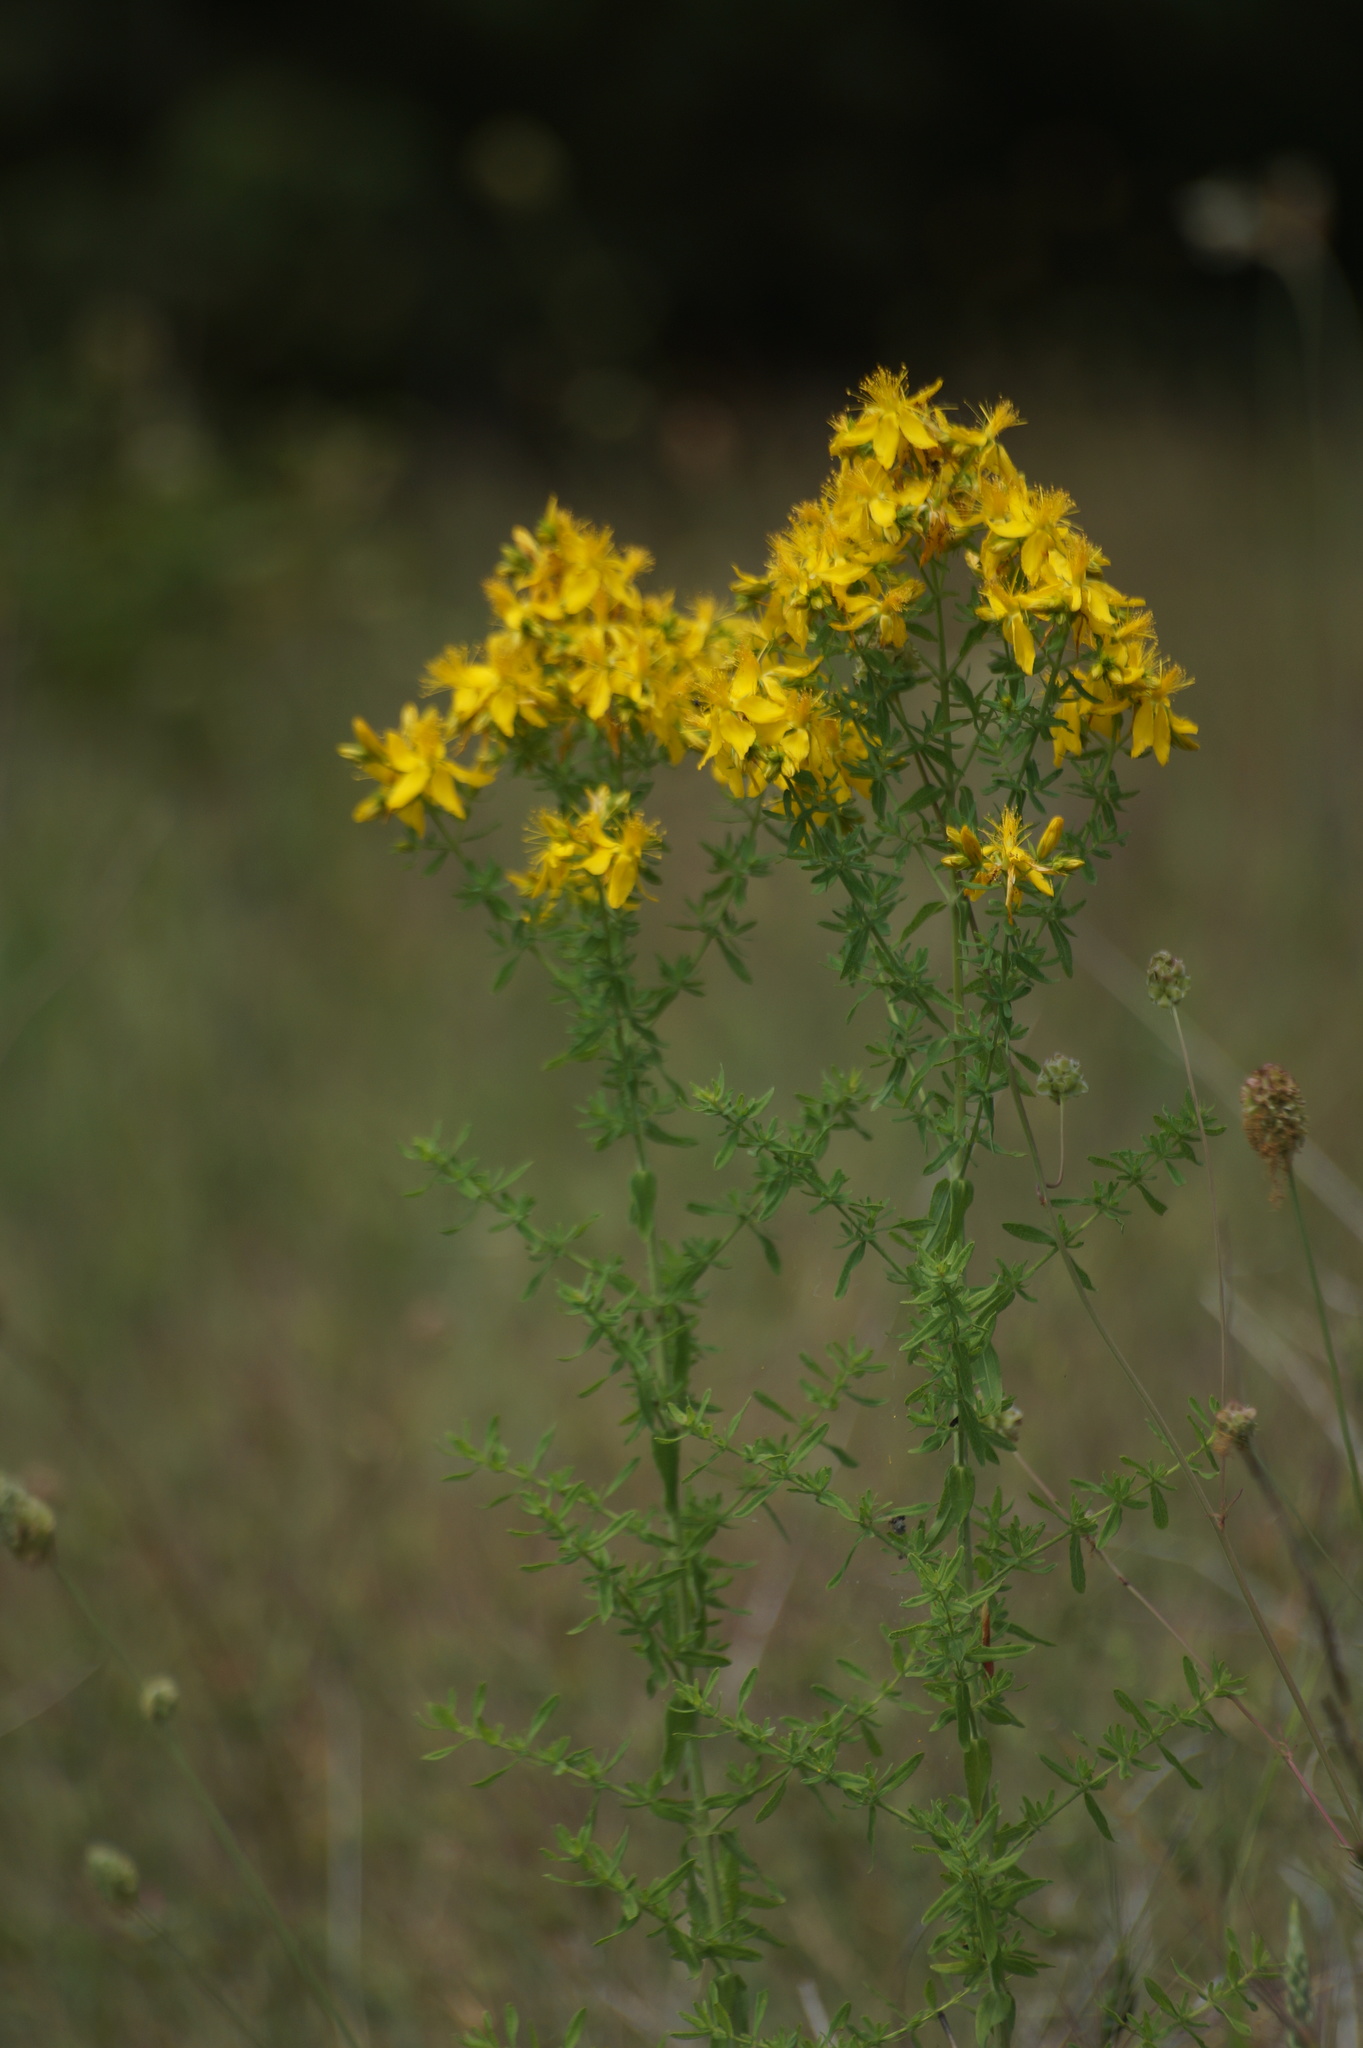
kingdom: Plantae
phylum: Tracheophyta
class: Magnoliopsida
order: Malpighiales
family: Hypericaceae
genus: Hypericum
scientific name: Hypericum perforatum
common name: Common st. johnswort
